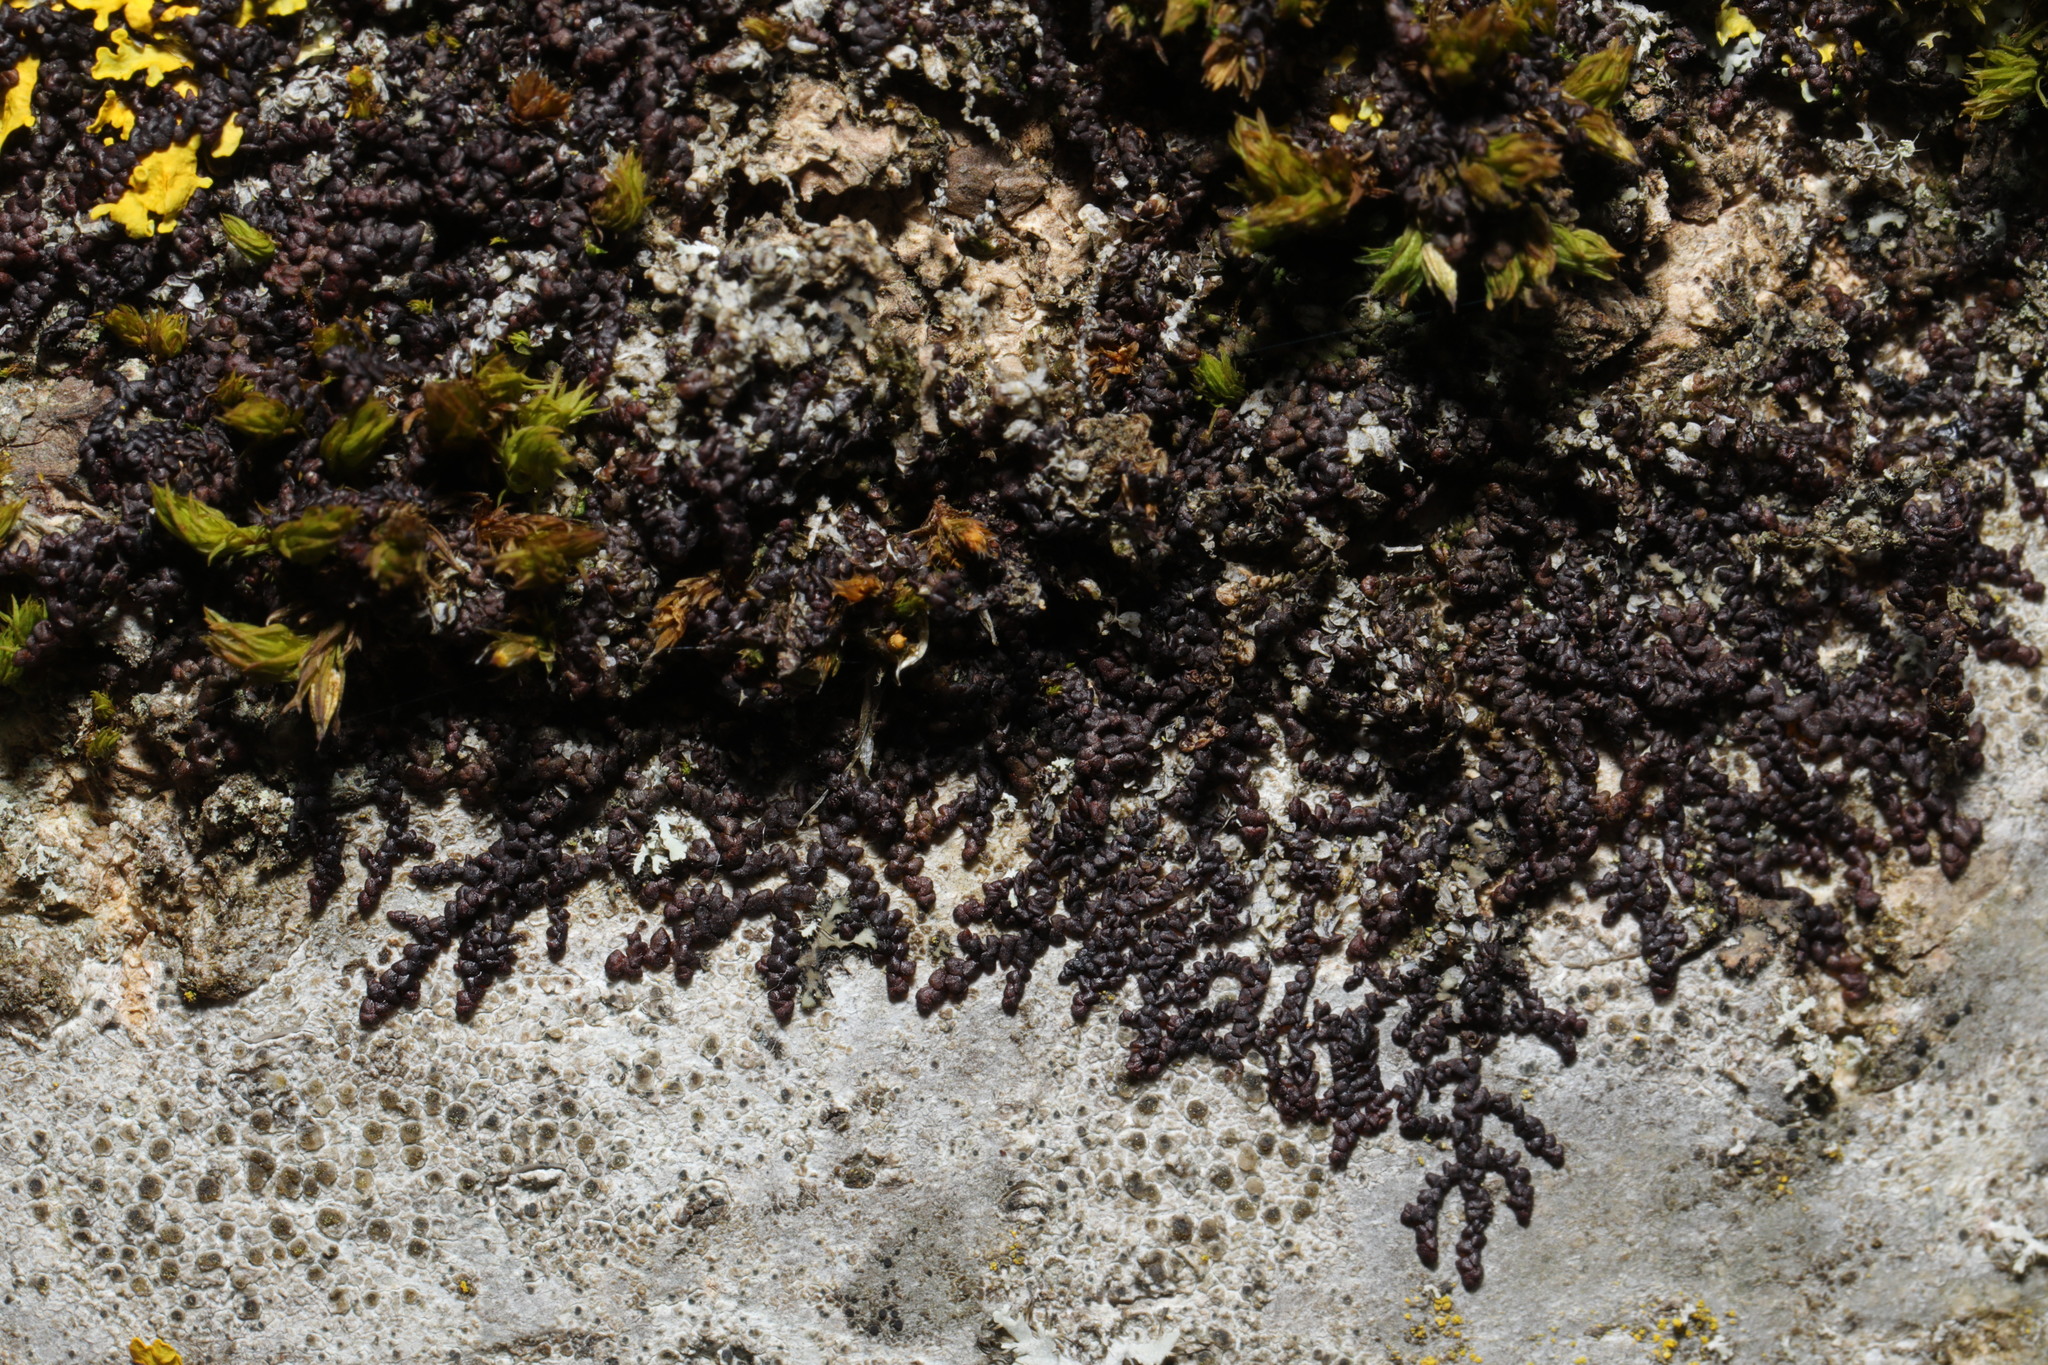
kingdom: Plantae
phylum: Marchantiophyta
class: Jungermanniopsida
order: Porellales
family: Frullaniaceae
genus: Frullania
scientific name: Frullania dilatata
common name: Dilated scalewort
